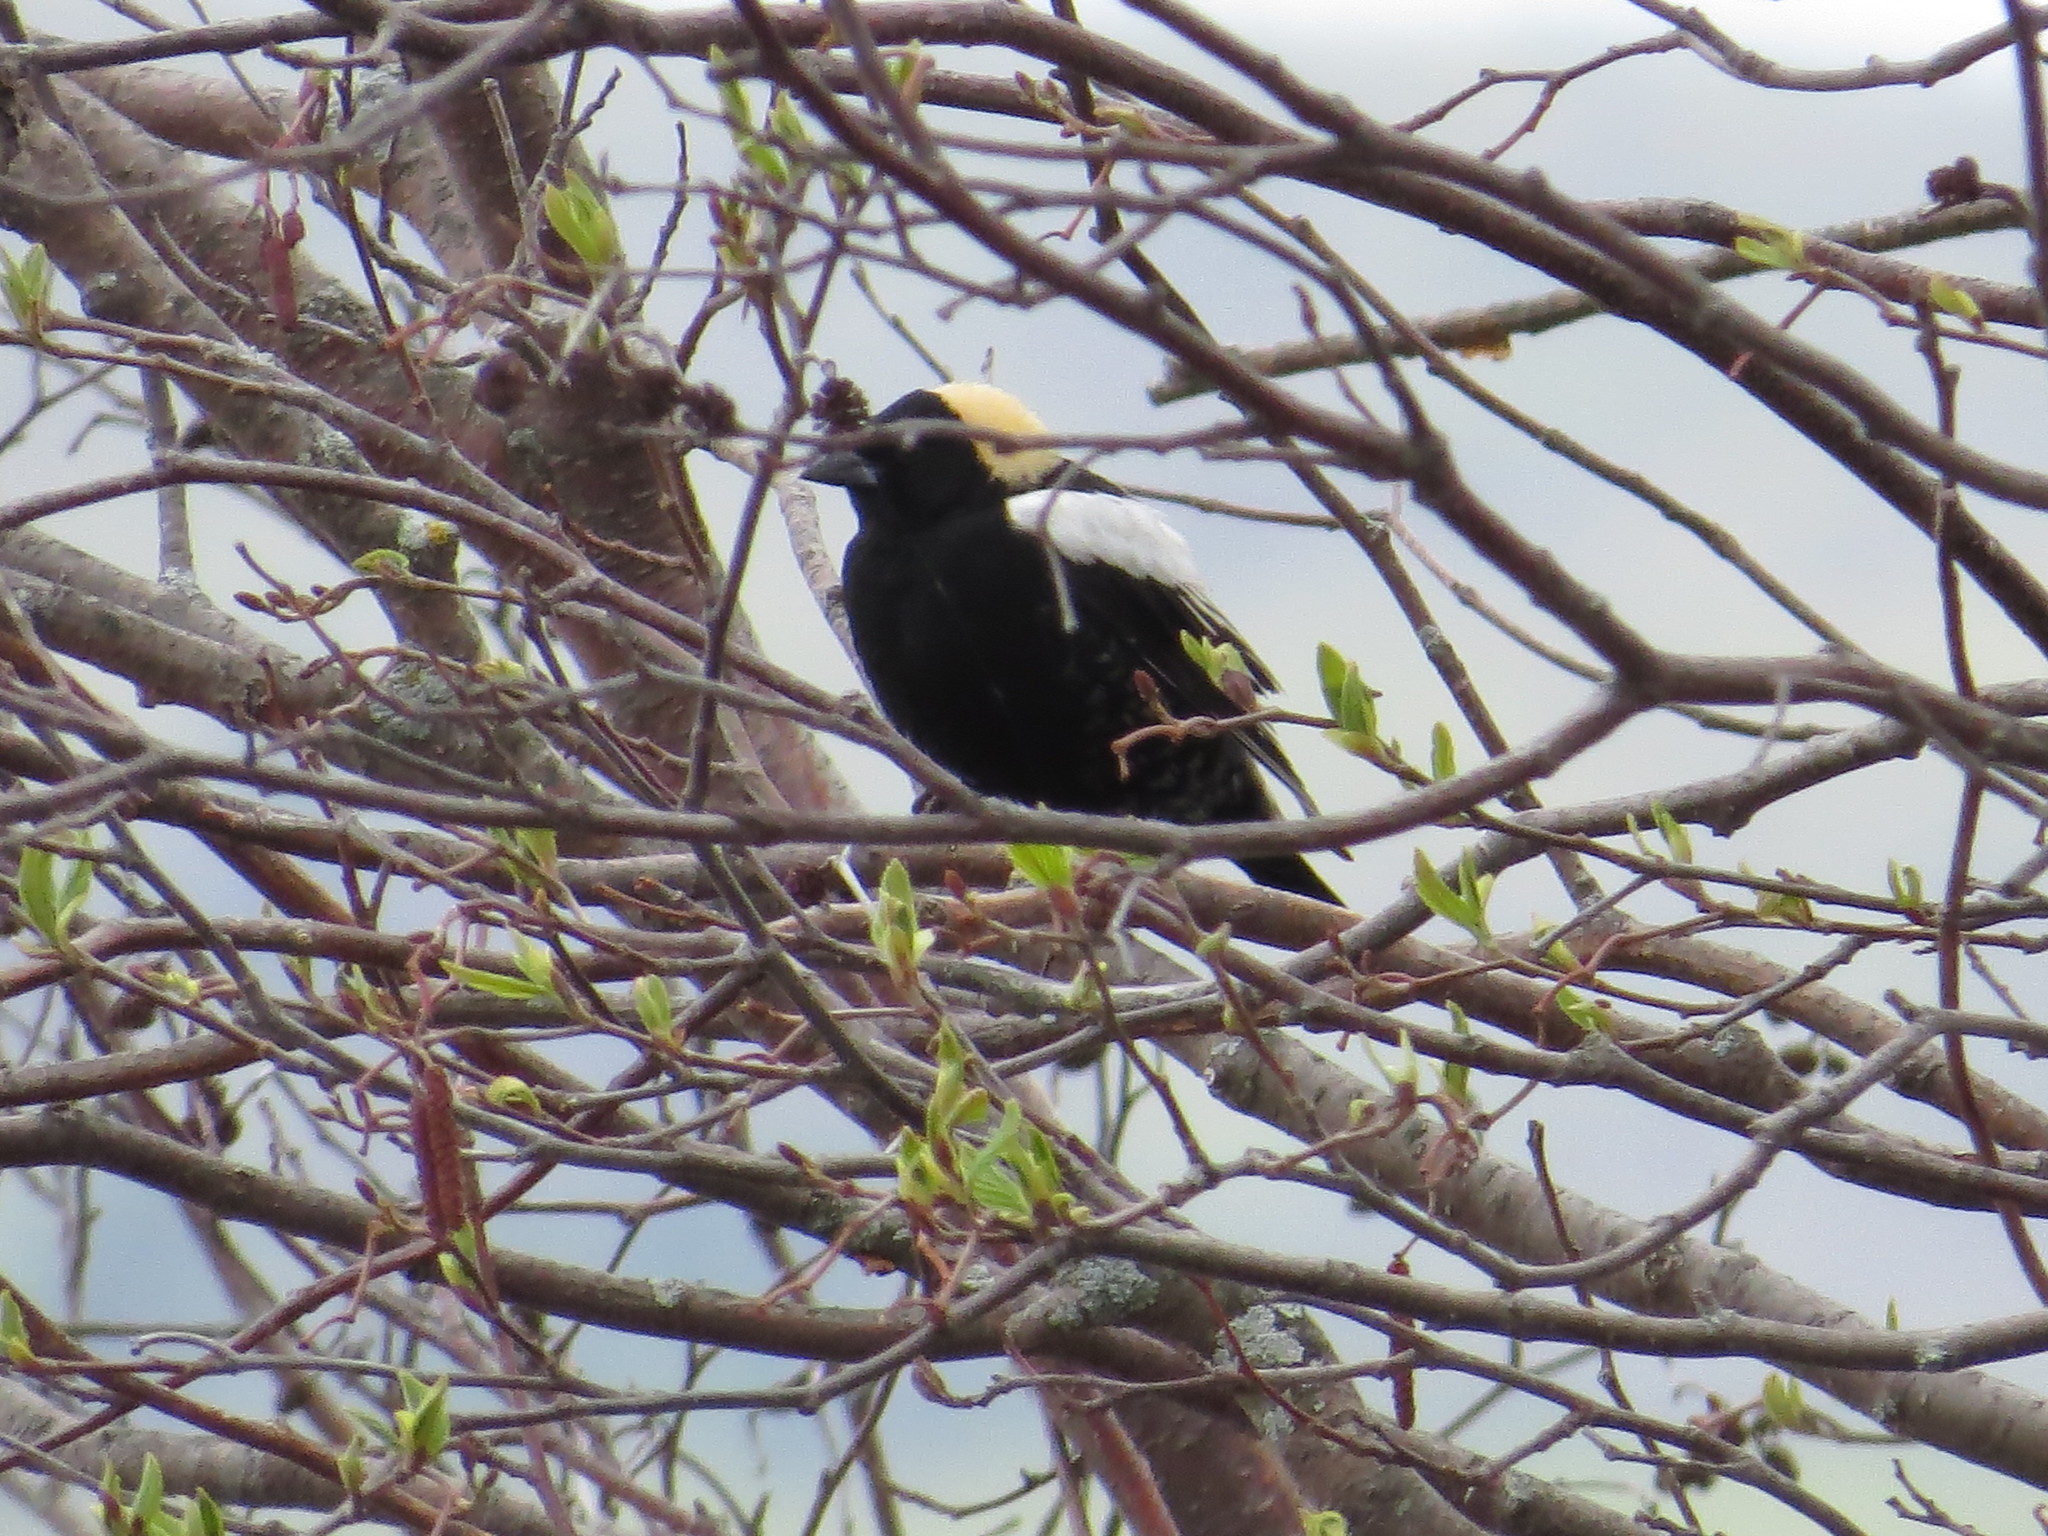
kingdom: Animalia
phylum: Chordata
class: Aves
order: Passeriformes
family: Icteridae
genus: Dolichonyx
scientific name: Dolichonyx oryzivorus
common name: Bobolink
